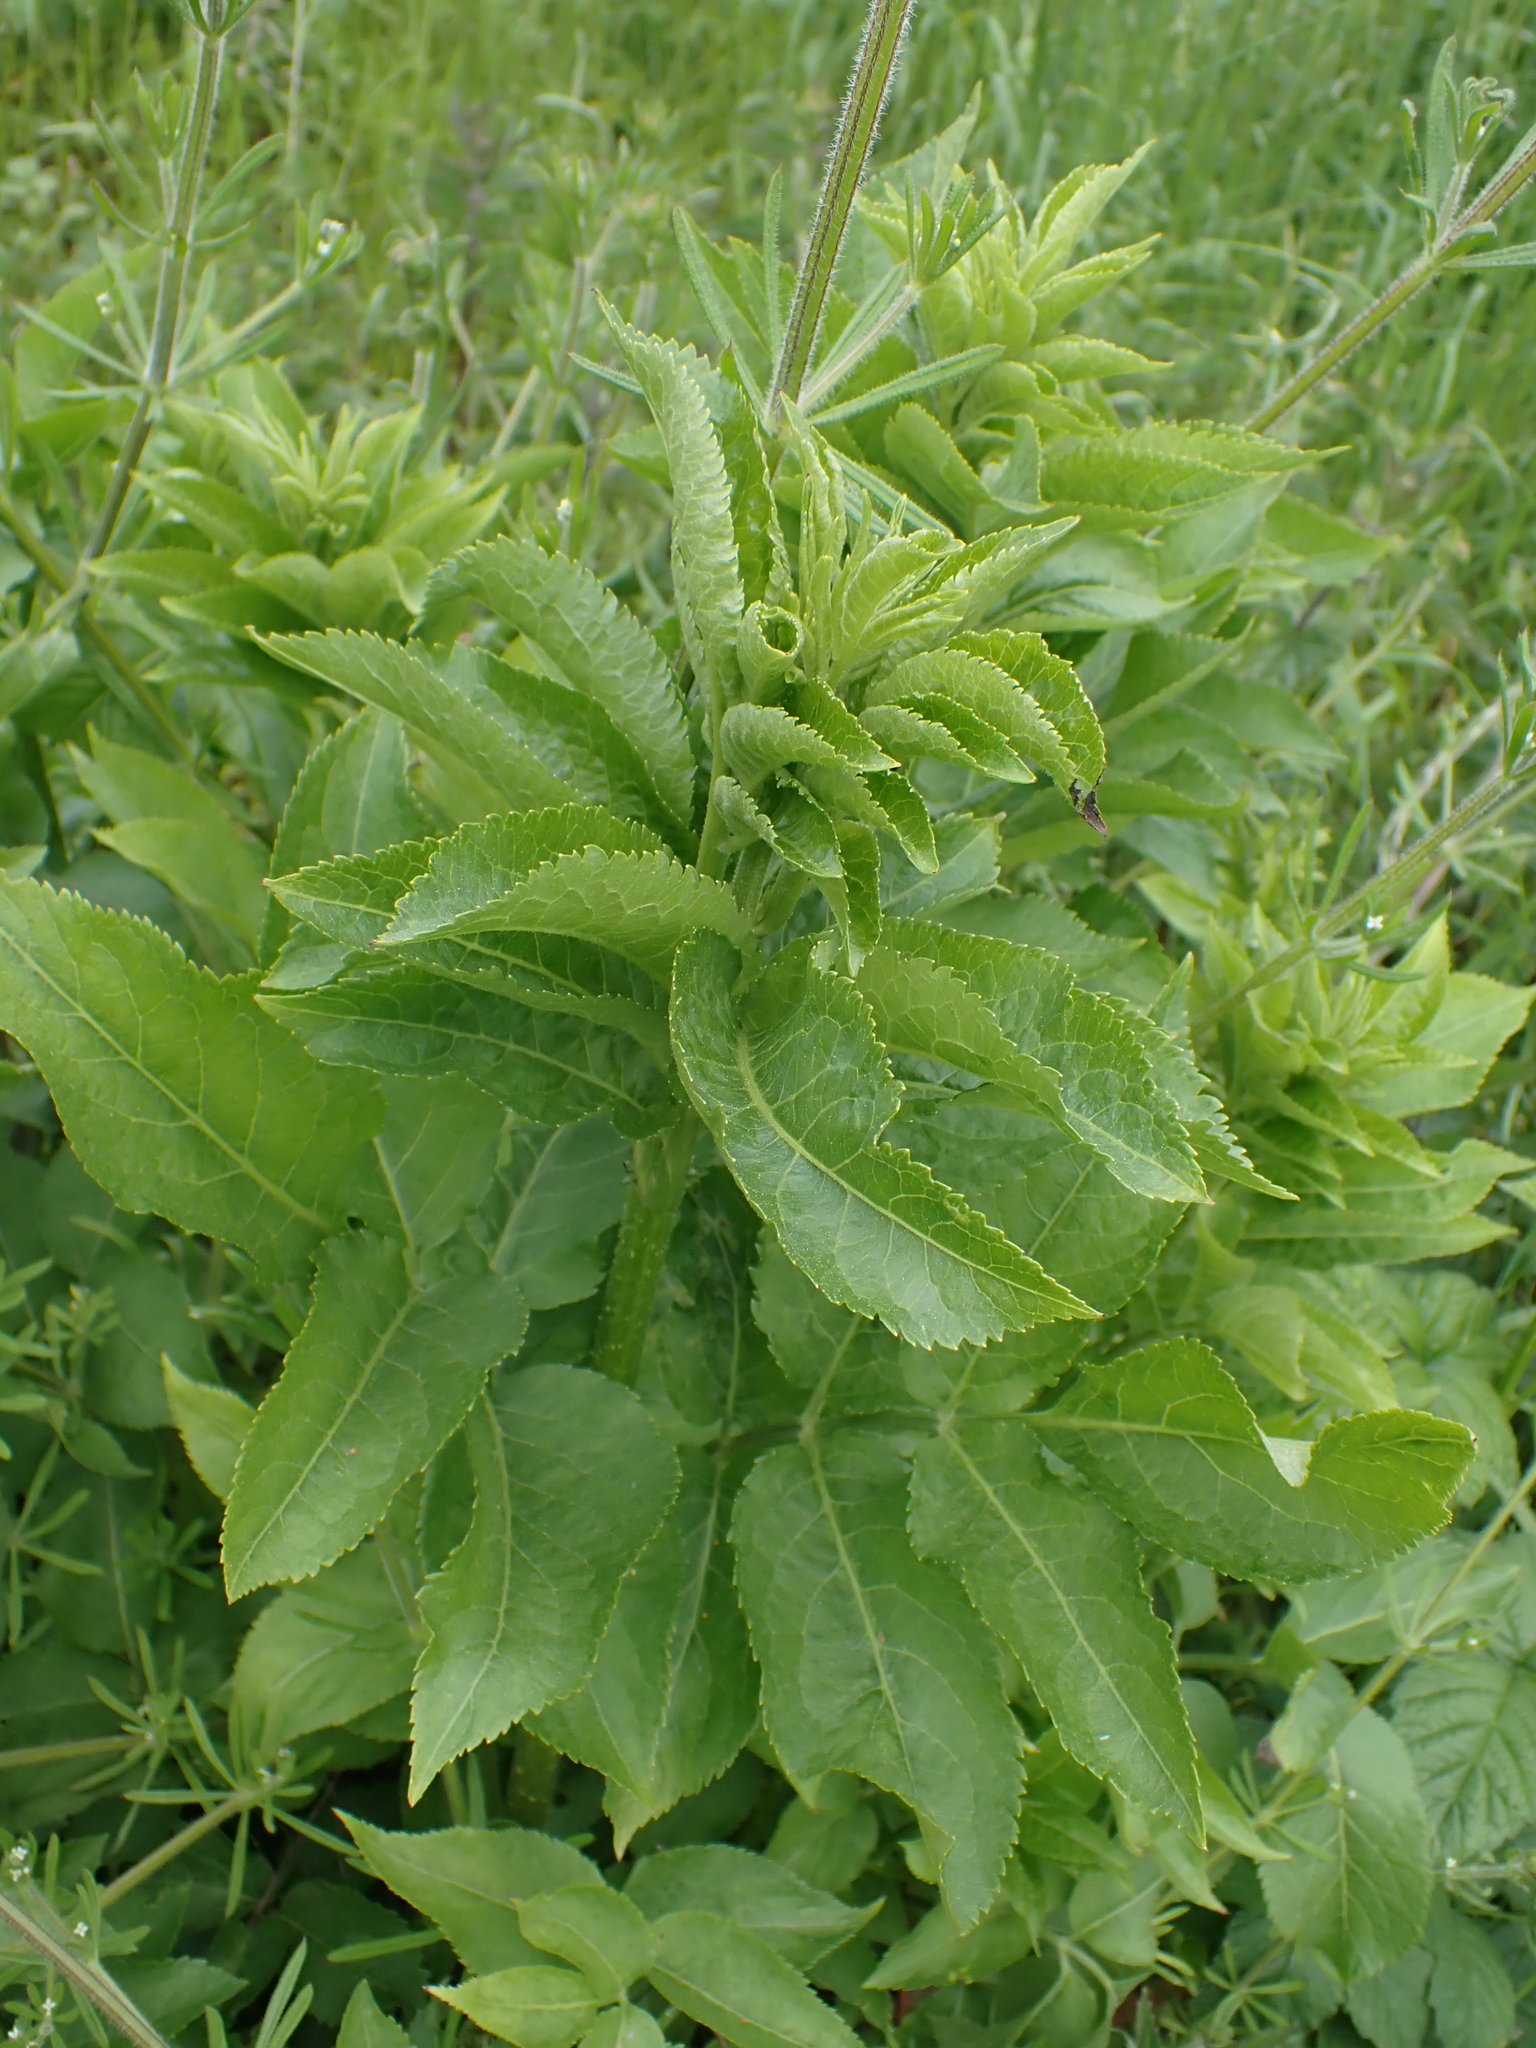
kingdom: Plantae
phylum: Tracheophyta
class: Magnoliopsida
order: Dipsacales
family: Viburnaceae
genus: Sambucus
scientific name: Sambucus nigra
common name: Elder
